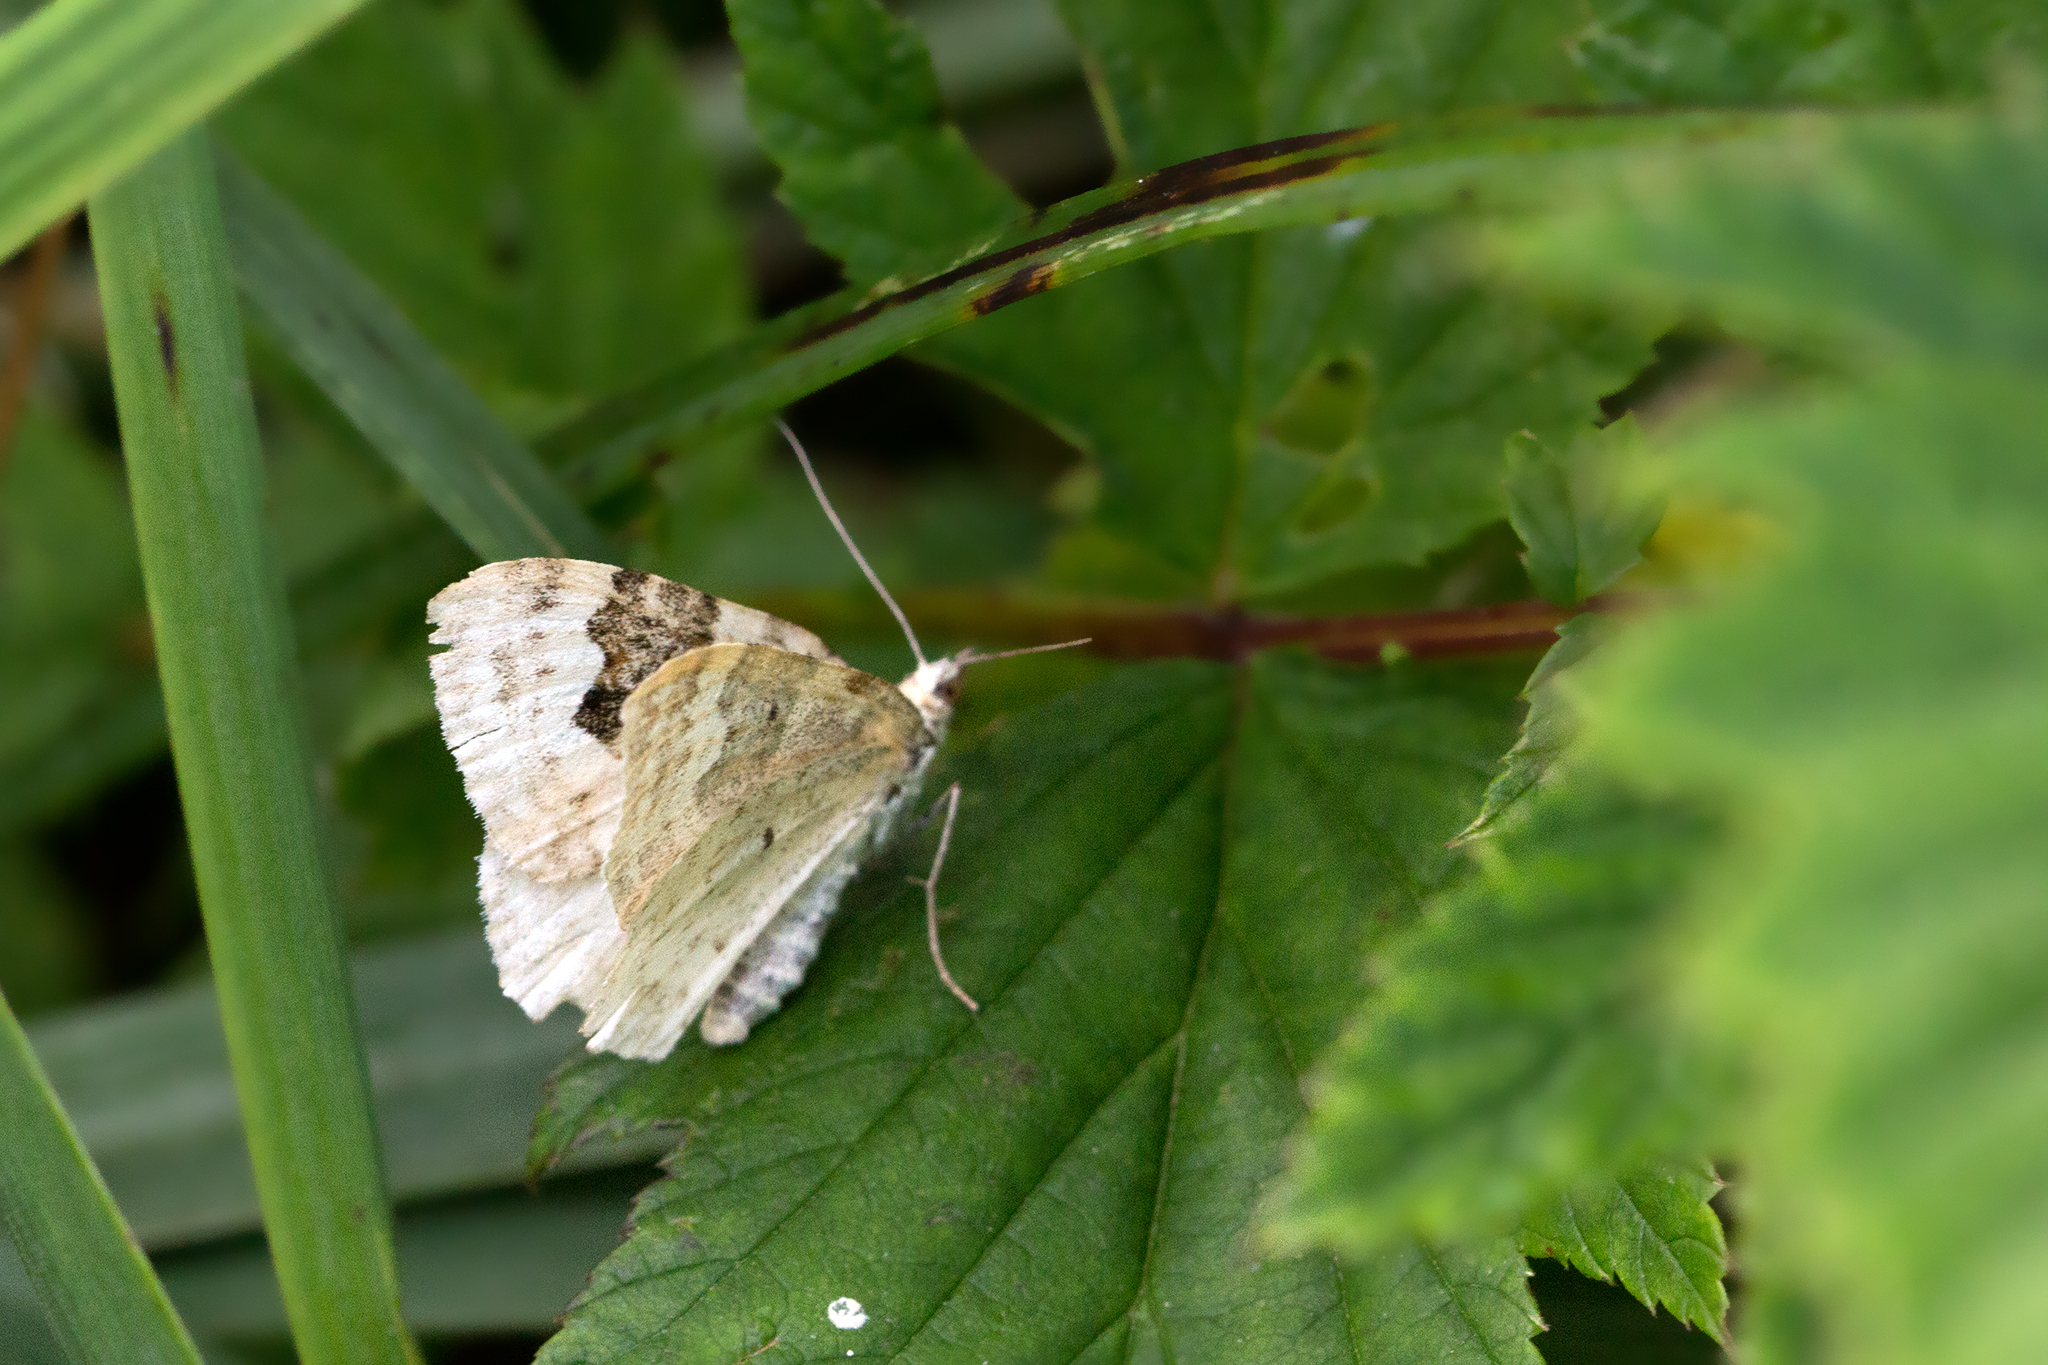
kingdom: Animalia
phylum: Arthropoda
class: Insecta
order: Lepidoptera
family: Geometridae
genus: Xanthorhoe
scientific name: Xanthorhoe montanata
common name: Silver-ground carpet
